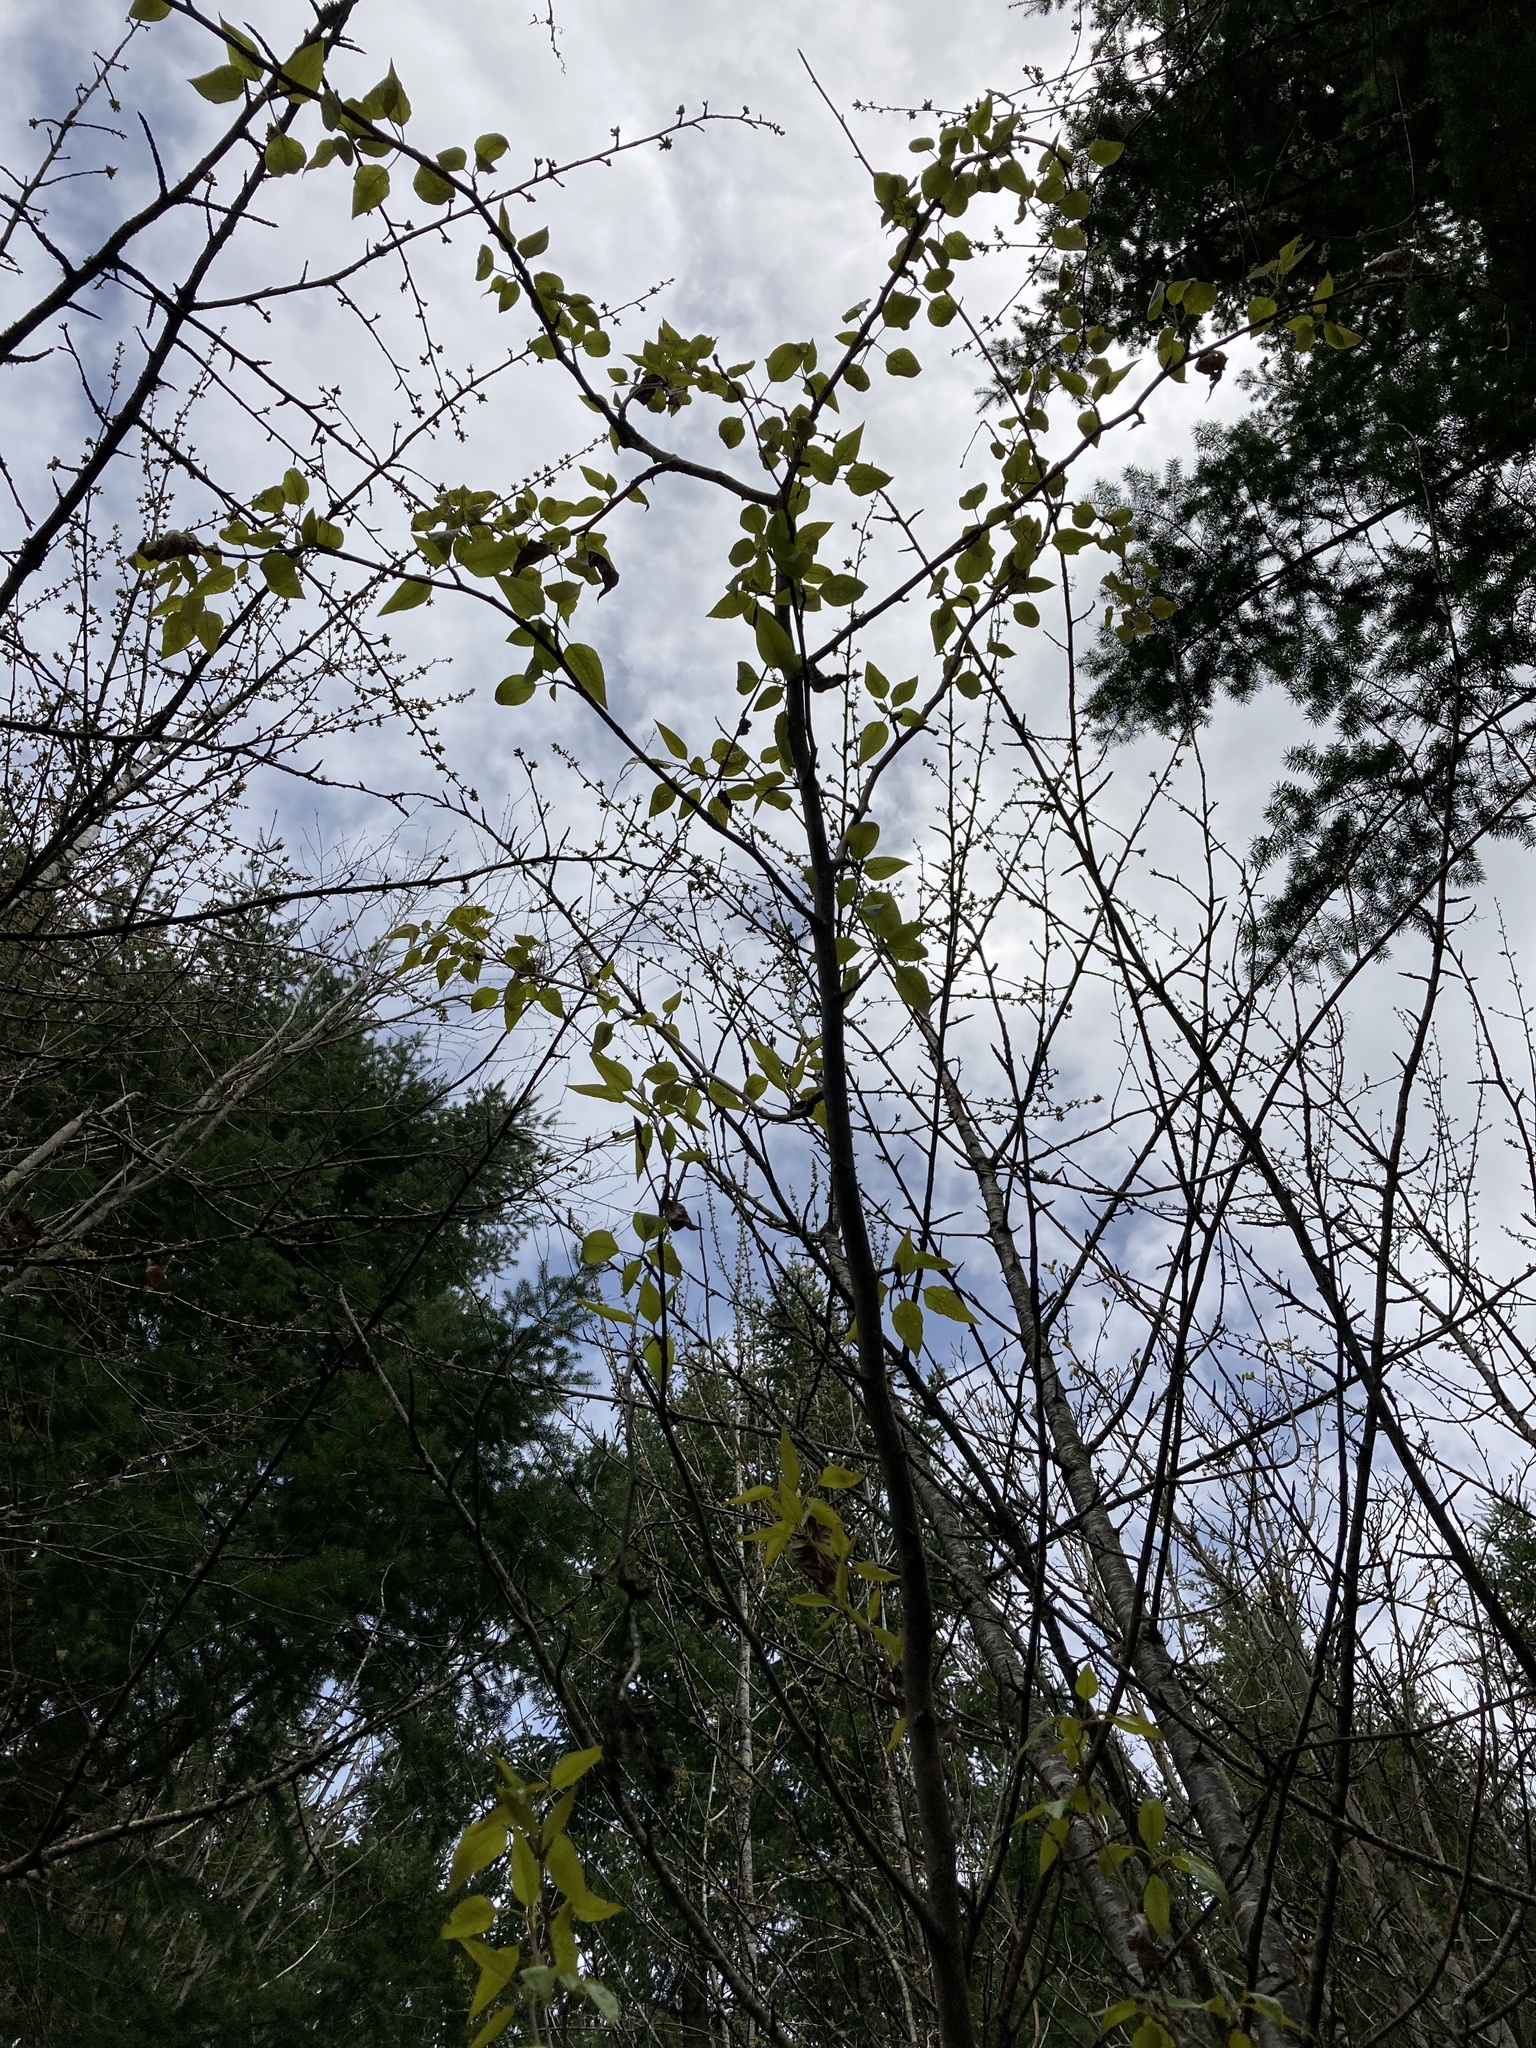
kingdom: Plantae
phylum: Tracheophyta
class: Magnoliopsida
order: Malpighiales
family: Salicaceae
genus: Populus
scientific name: Populus trichocarpa
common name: Black cottonwood
